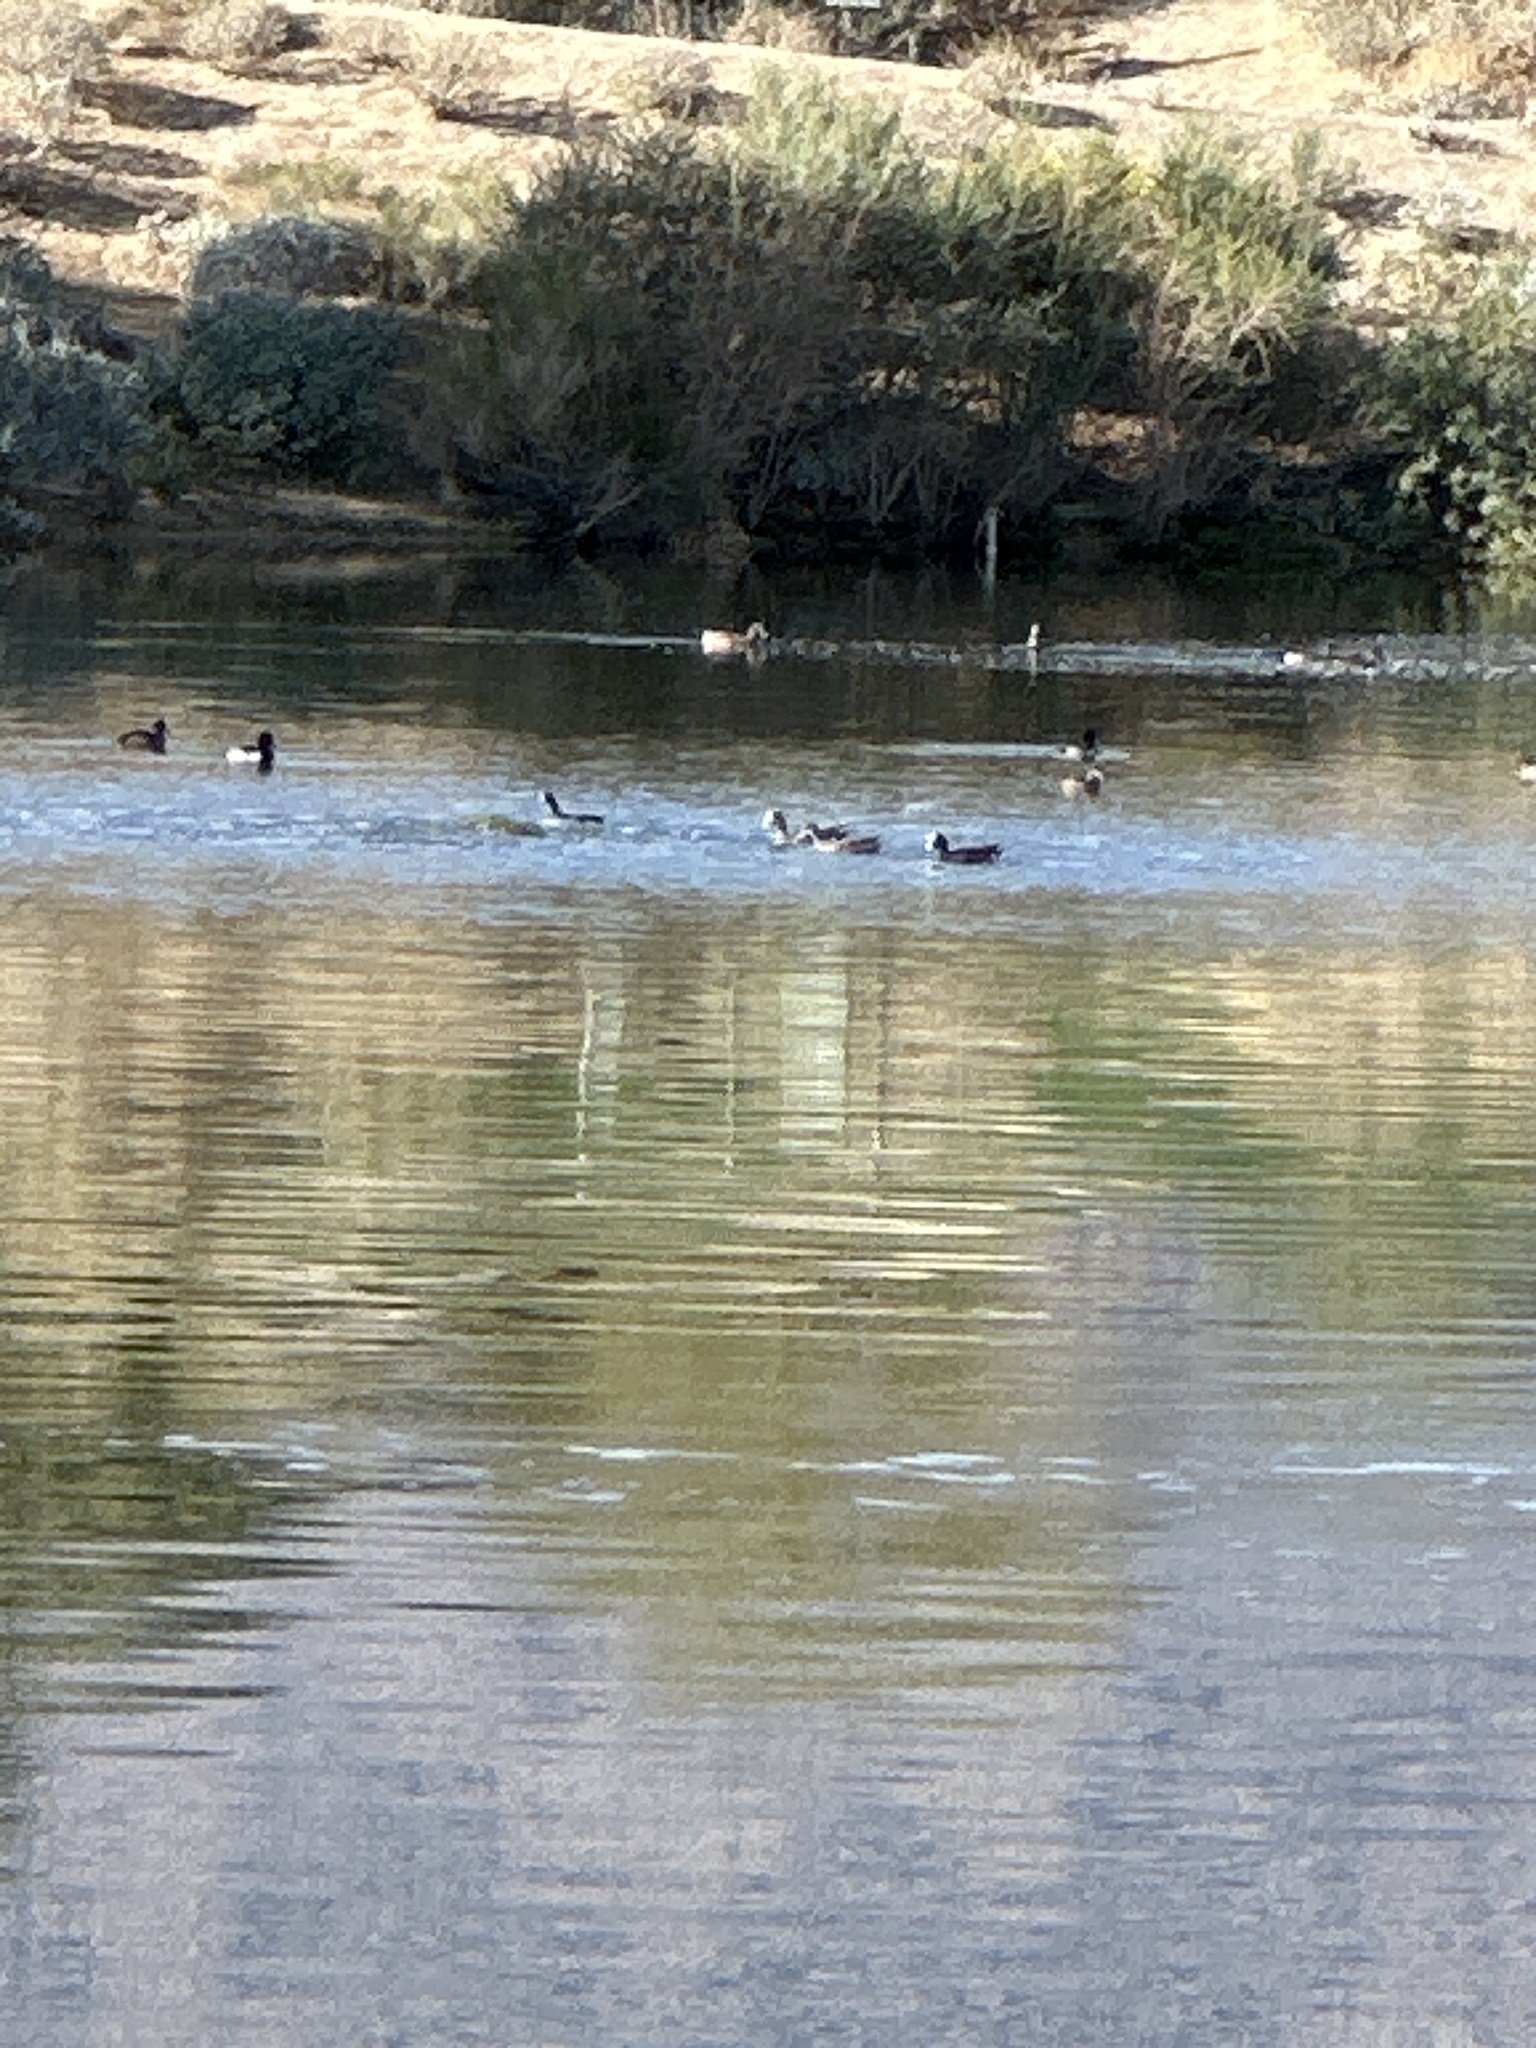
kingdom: Animalia
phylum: Chordata
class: Aves
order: Anseriformes
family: Anatidae
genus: Mareca
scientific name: Mareca americana
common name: American wigeon
